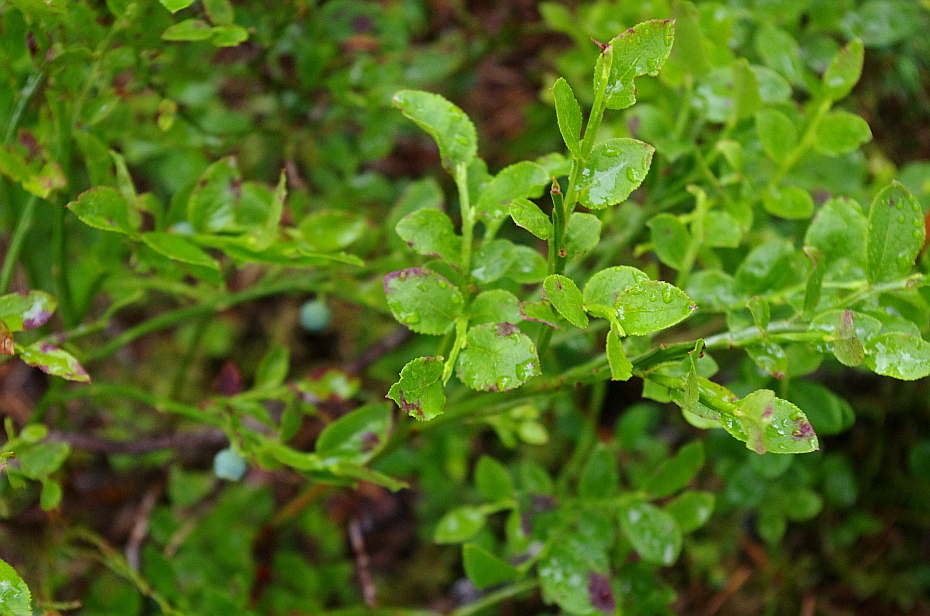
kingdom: Plantae
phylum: Tracheophyta
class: Magnoliopsida
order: Ericales
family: Ericaceae
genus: Vaccinium
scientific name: Vaccinium myrtillus
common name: Bilberry
